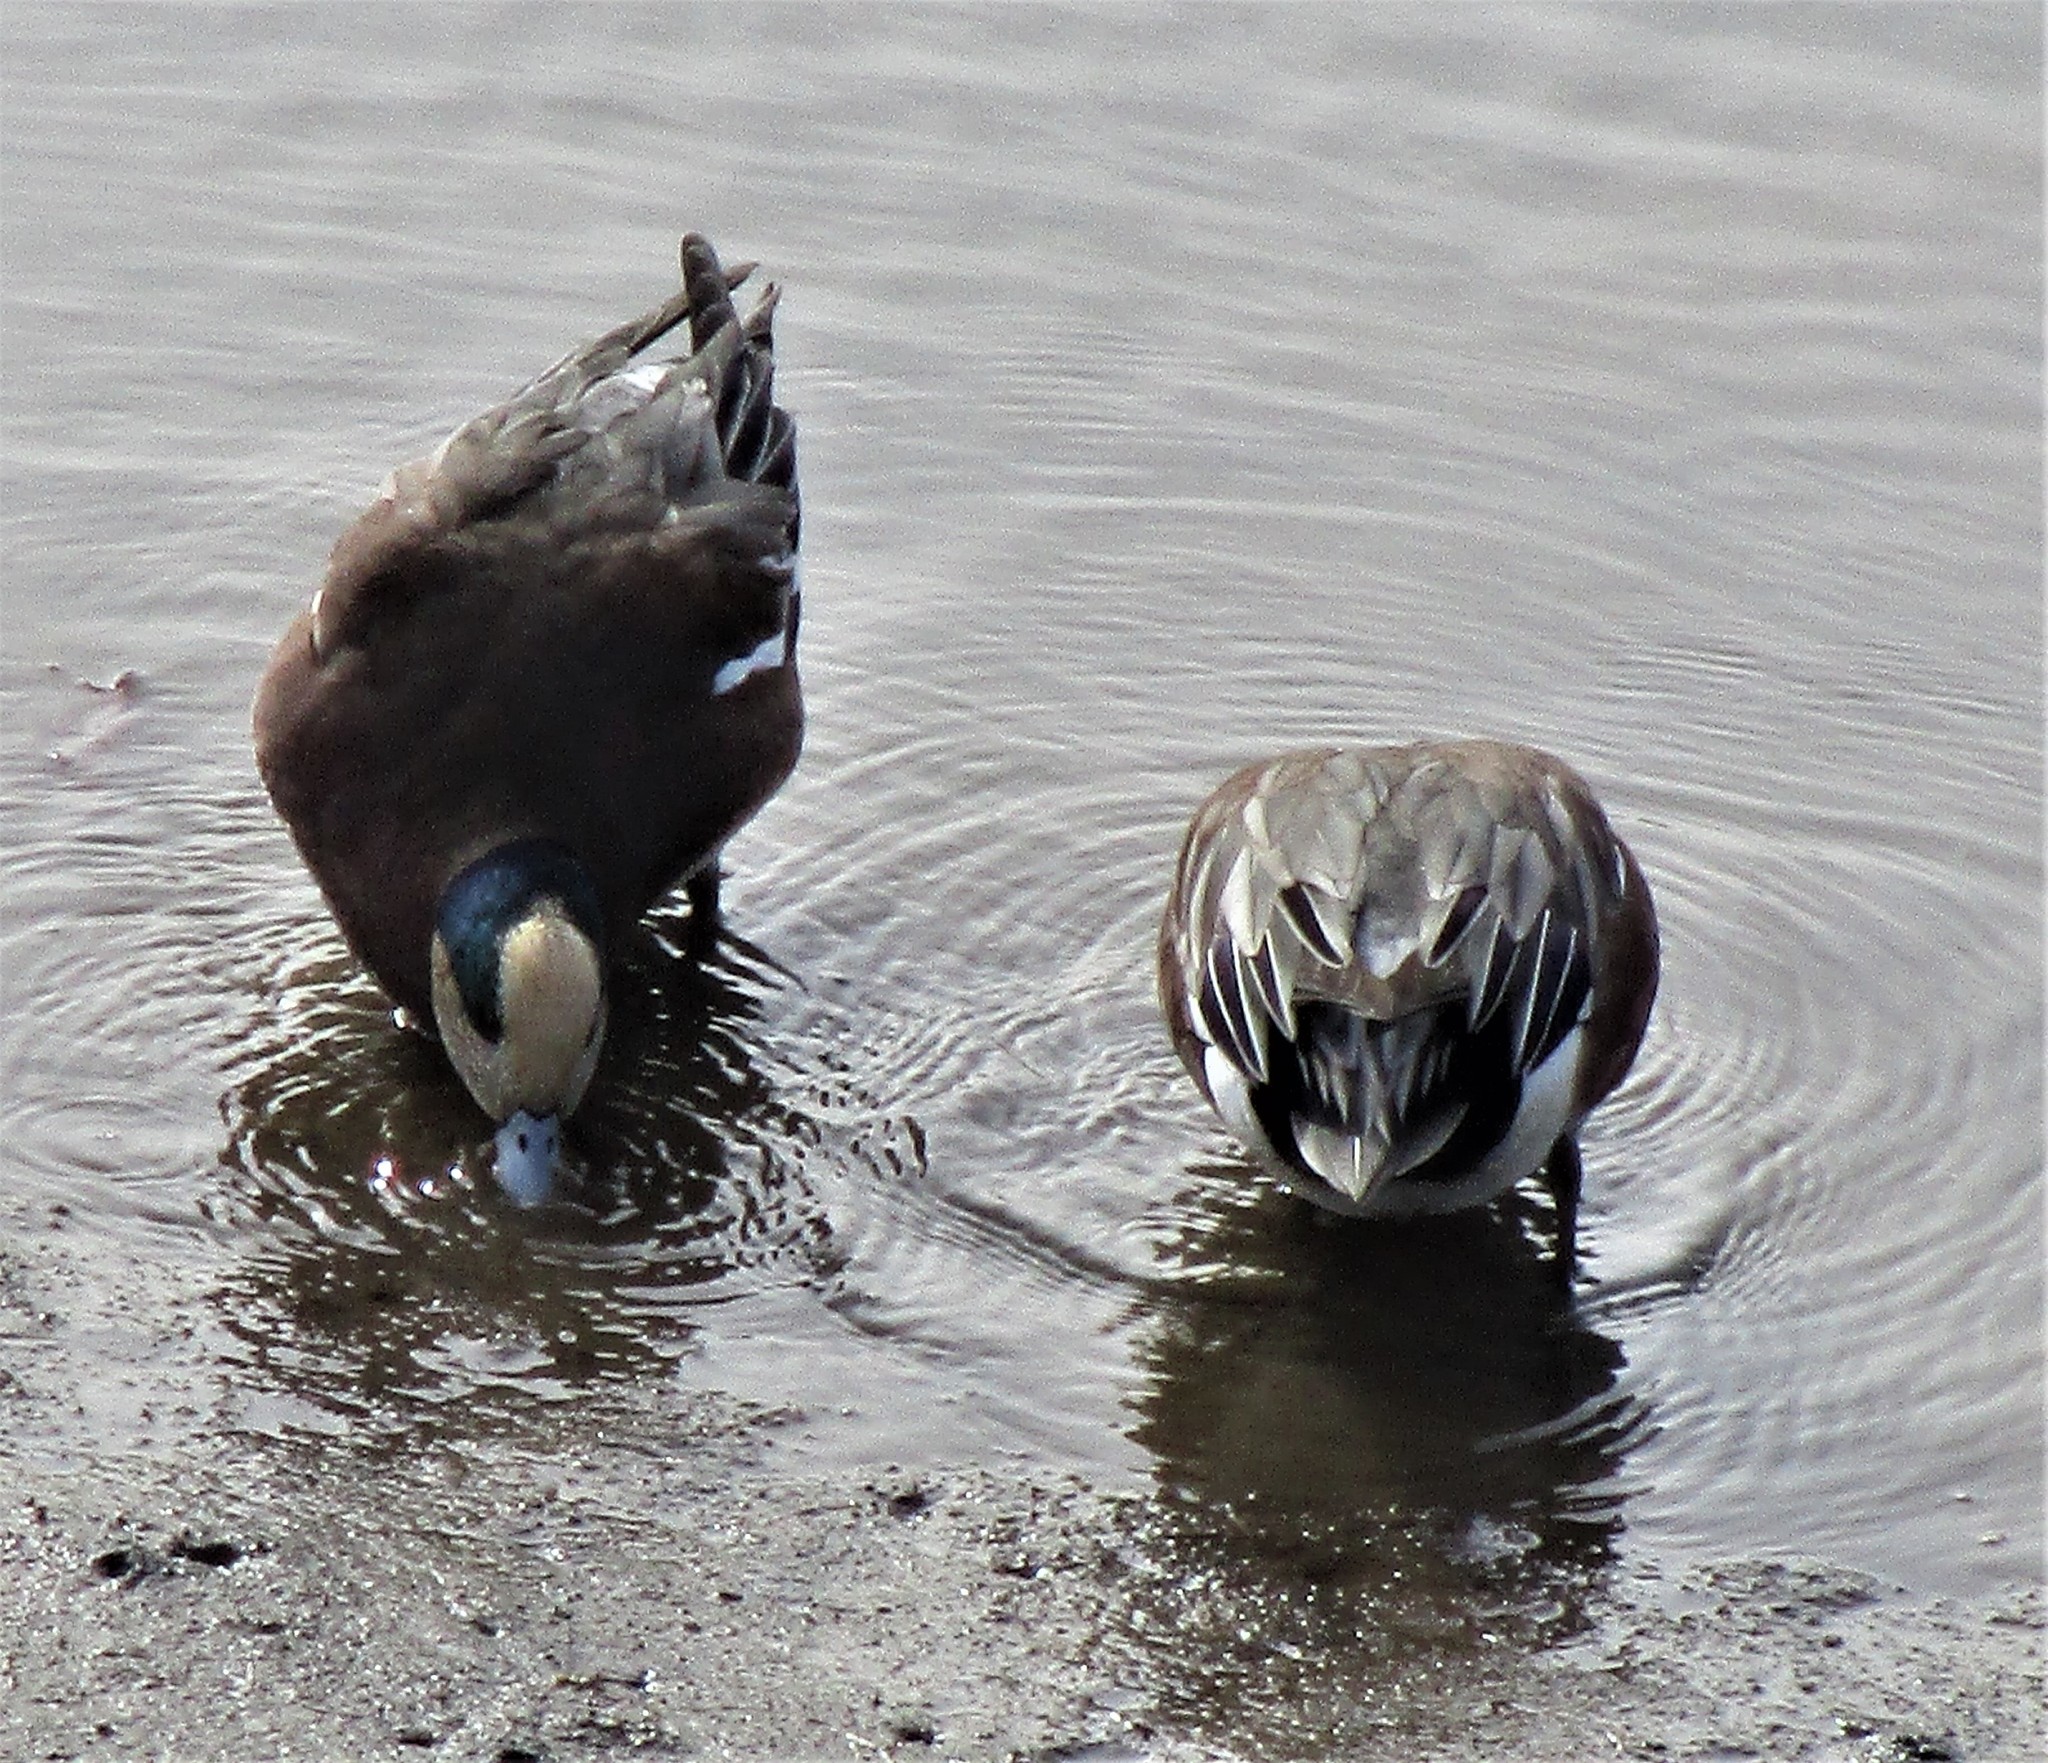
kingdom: Animalia
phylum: Chordata
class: Aves
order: Anseriformes
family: Anatidae
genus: Mareca
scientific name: Mareca americana
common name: American wigeon
